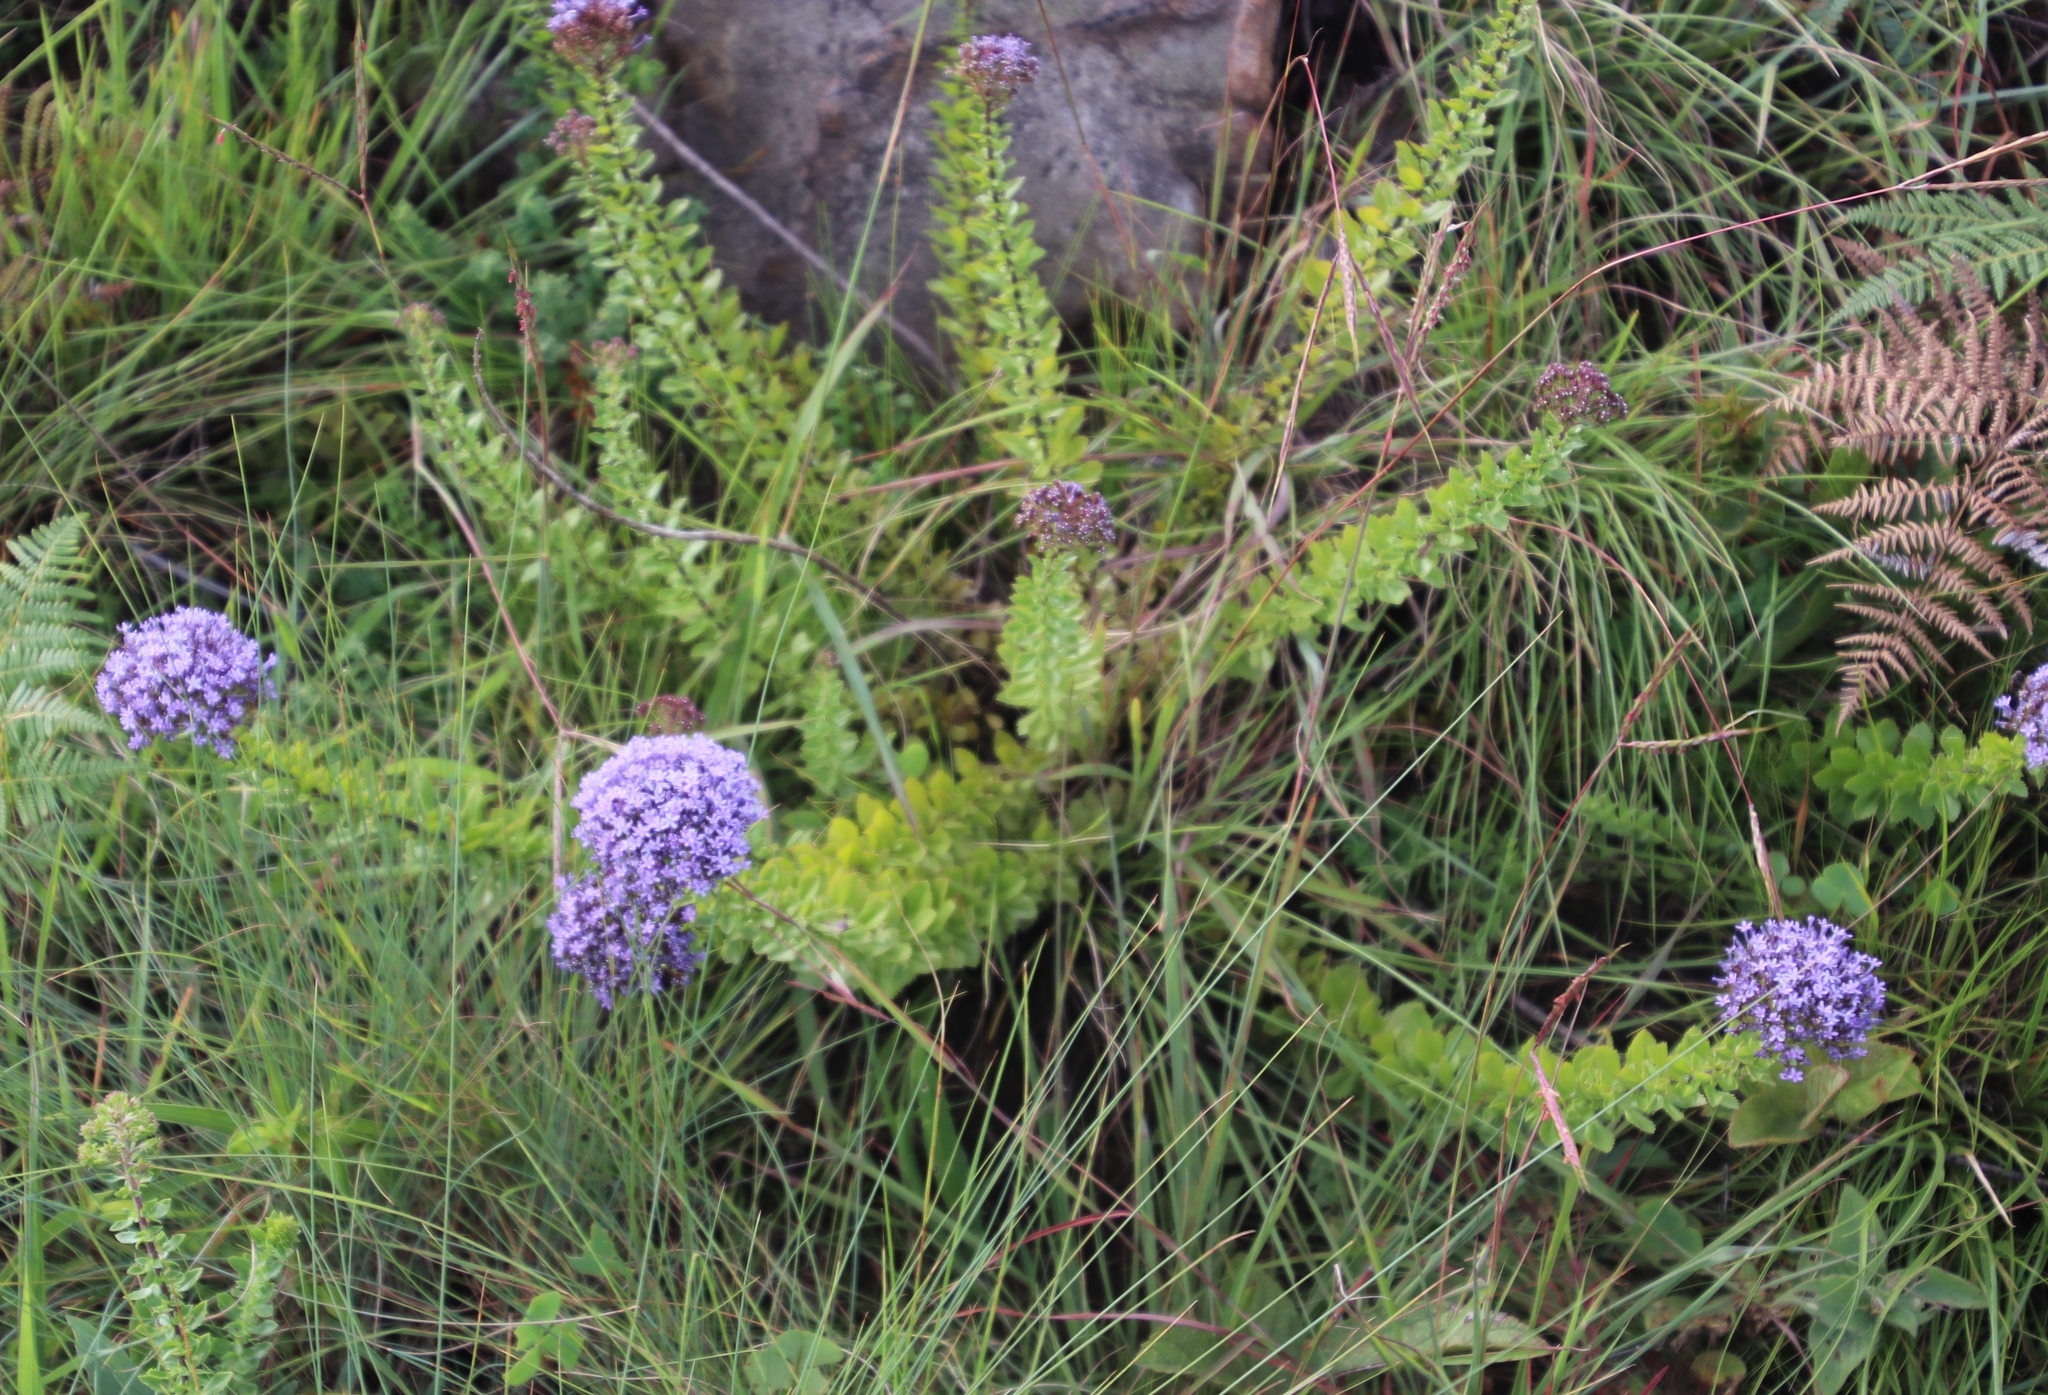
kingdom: Plantae
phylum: Tracheophyta
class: Magnoliopsida
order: Lamiales
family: Scrophulariaceae
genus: Tetraselago
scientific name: Tetraselago longituba
